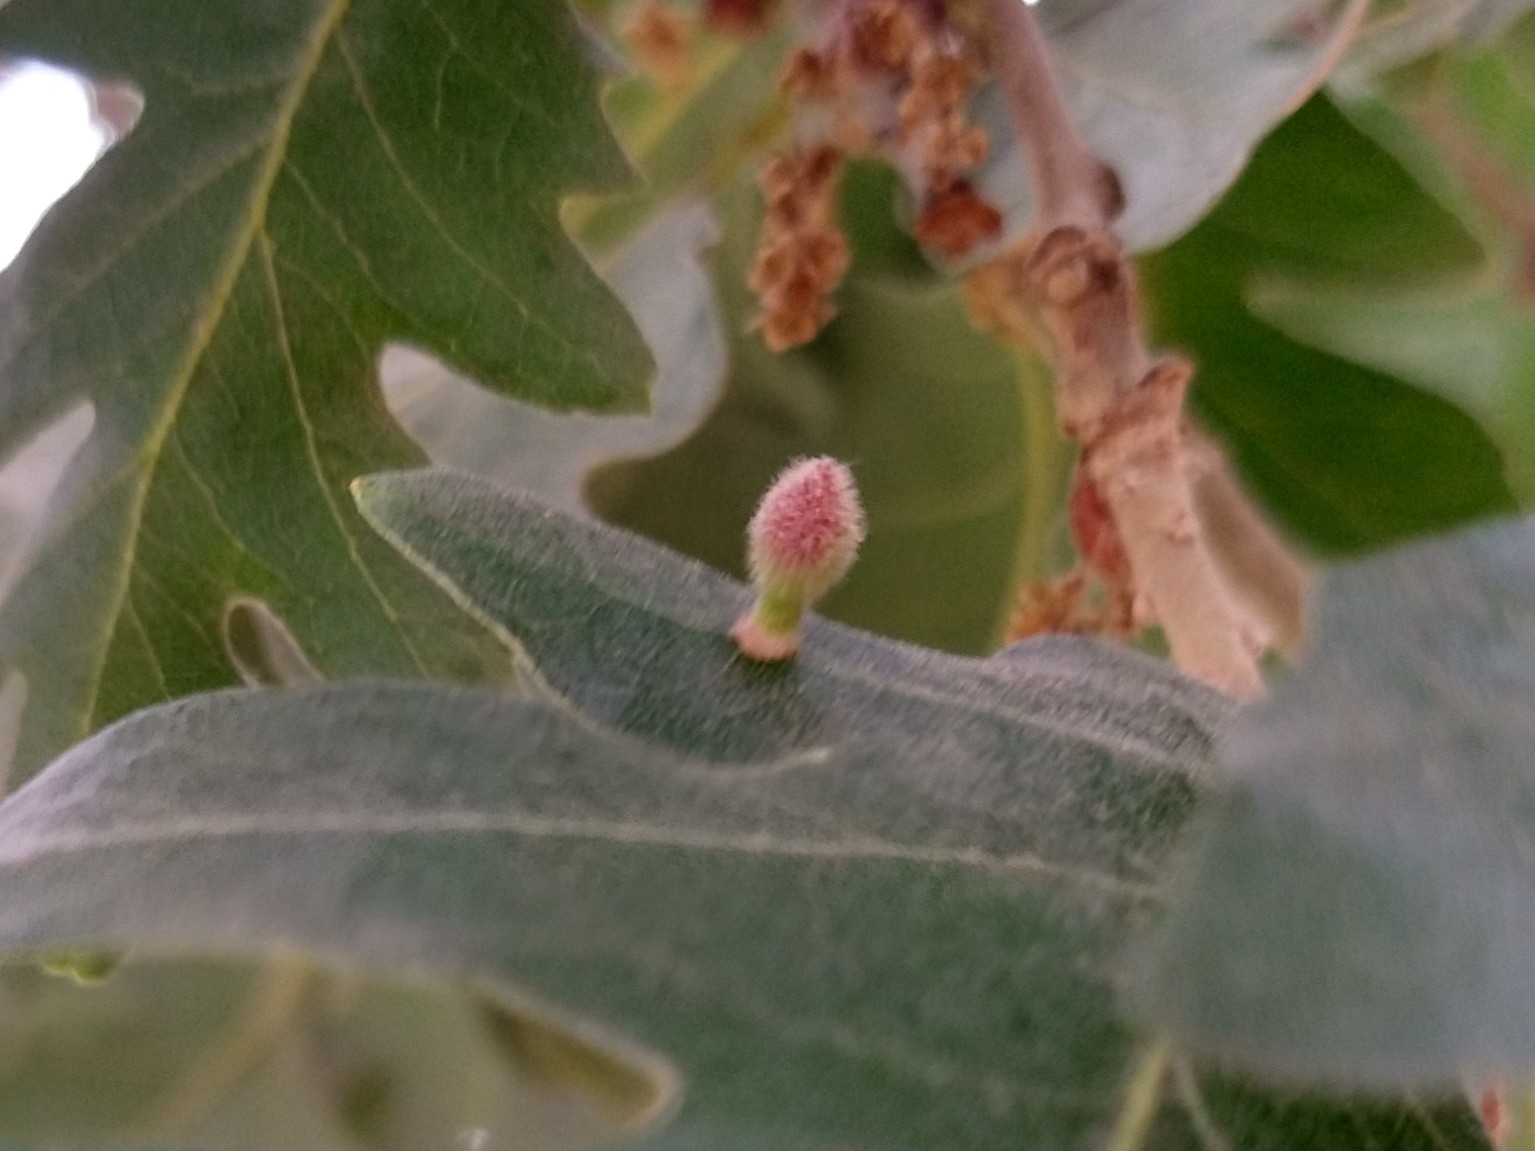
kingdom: Animalia
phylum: Arthropoda
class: Insecta
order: Hymenoptera
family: Cynipidae
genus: Atrusca
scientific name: Atrusca
